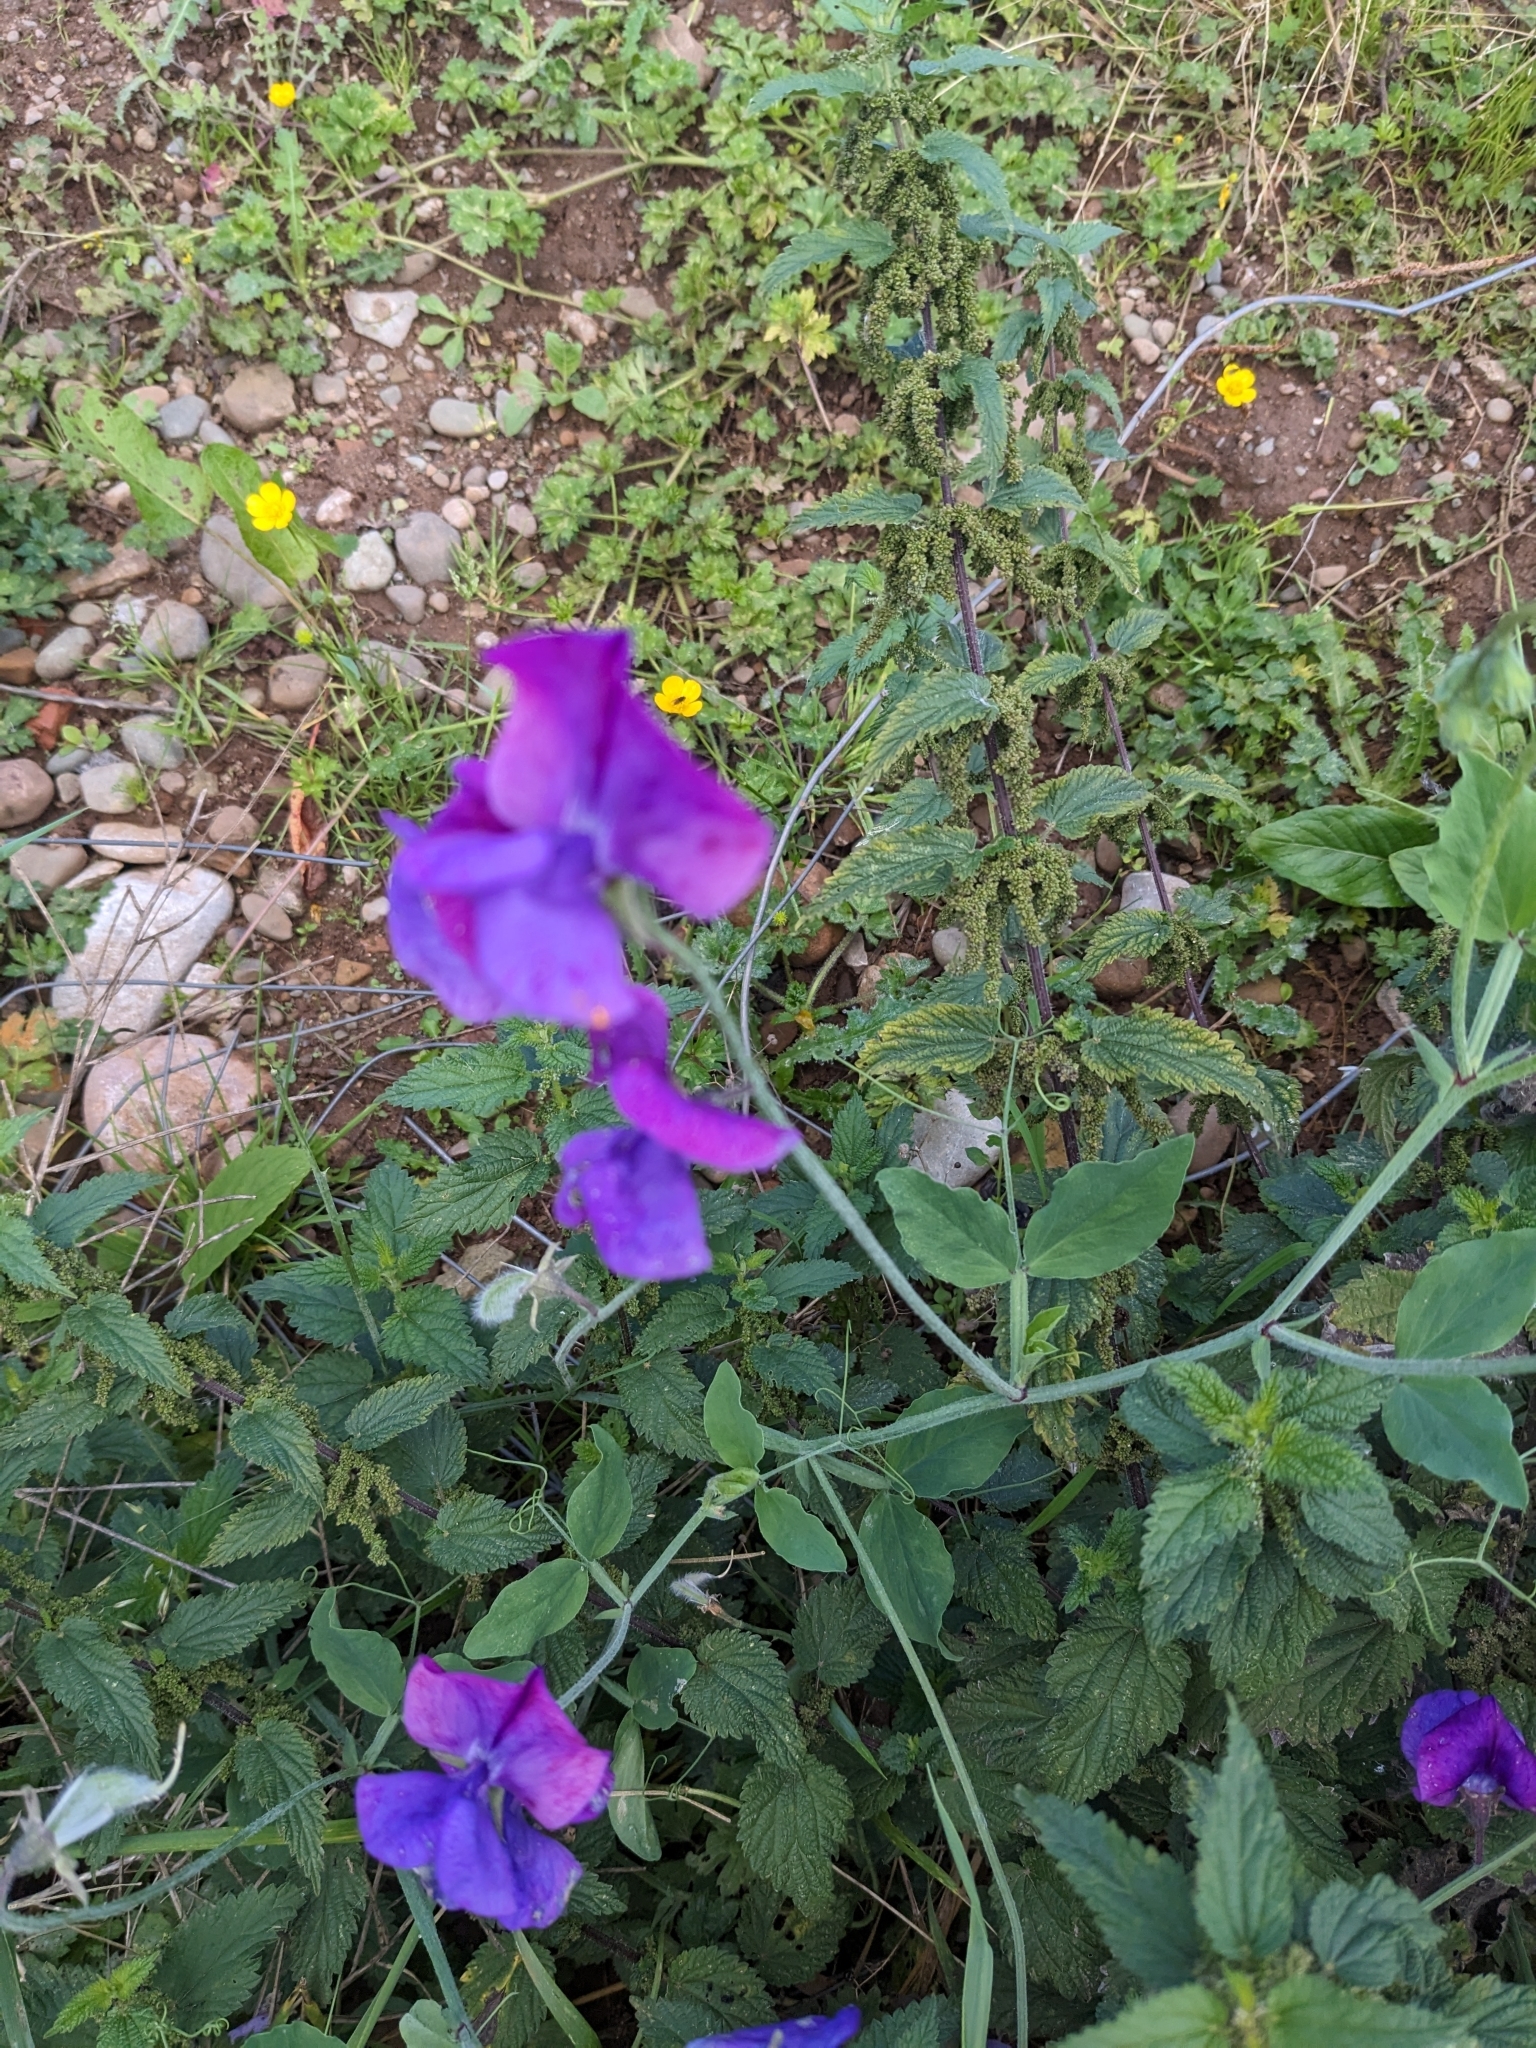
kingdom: Plantae
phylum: Tracheophyta
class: Magnoliopsida
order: Fabales
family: Fabaceae
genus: Lathyrus
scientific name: Lathyrus odoratus
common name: Sweet pea
